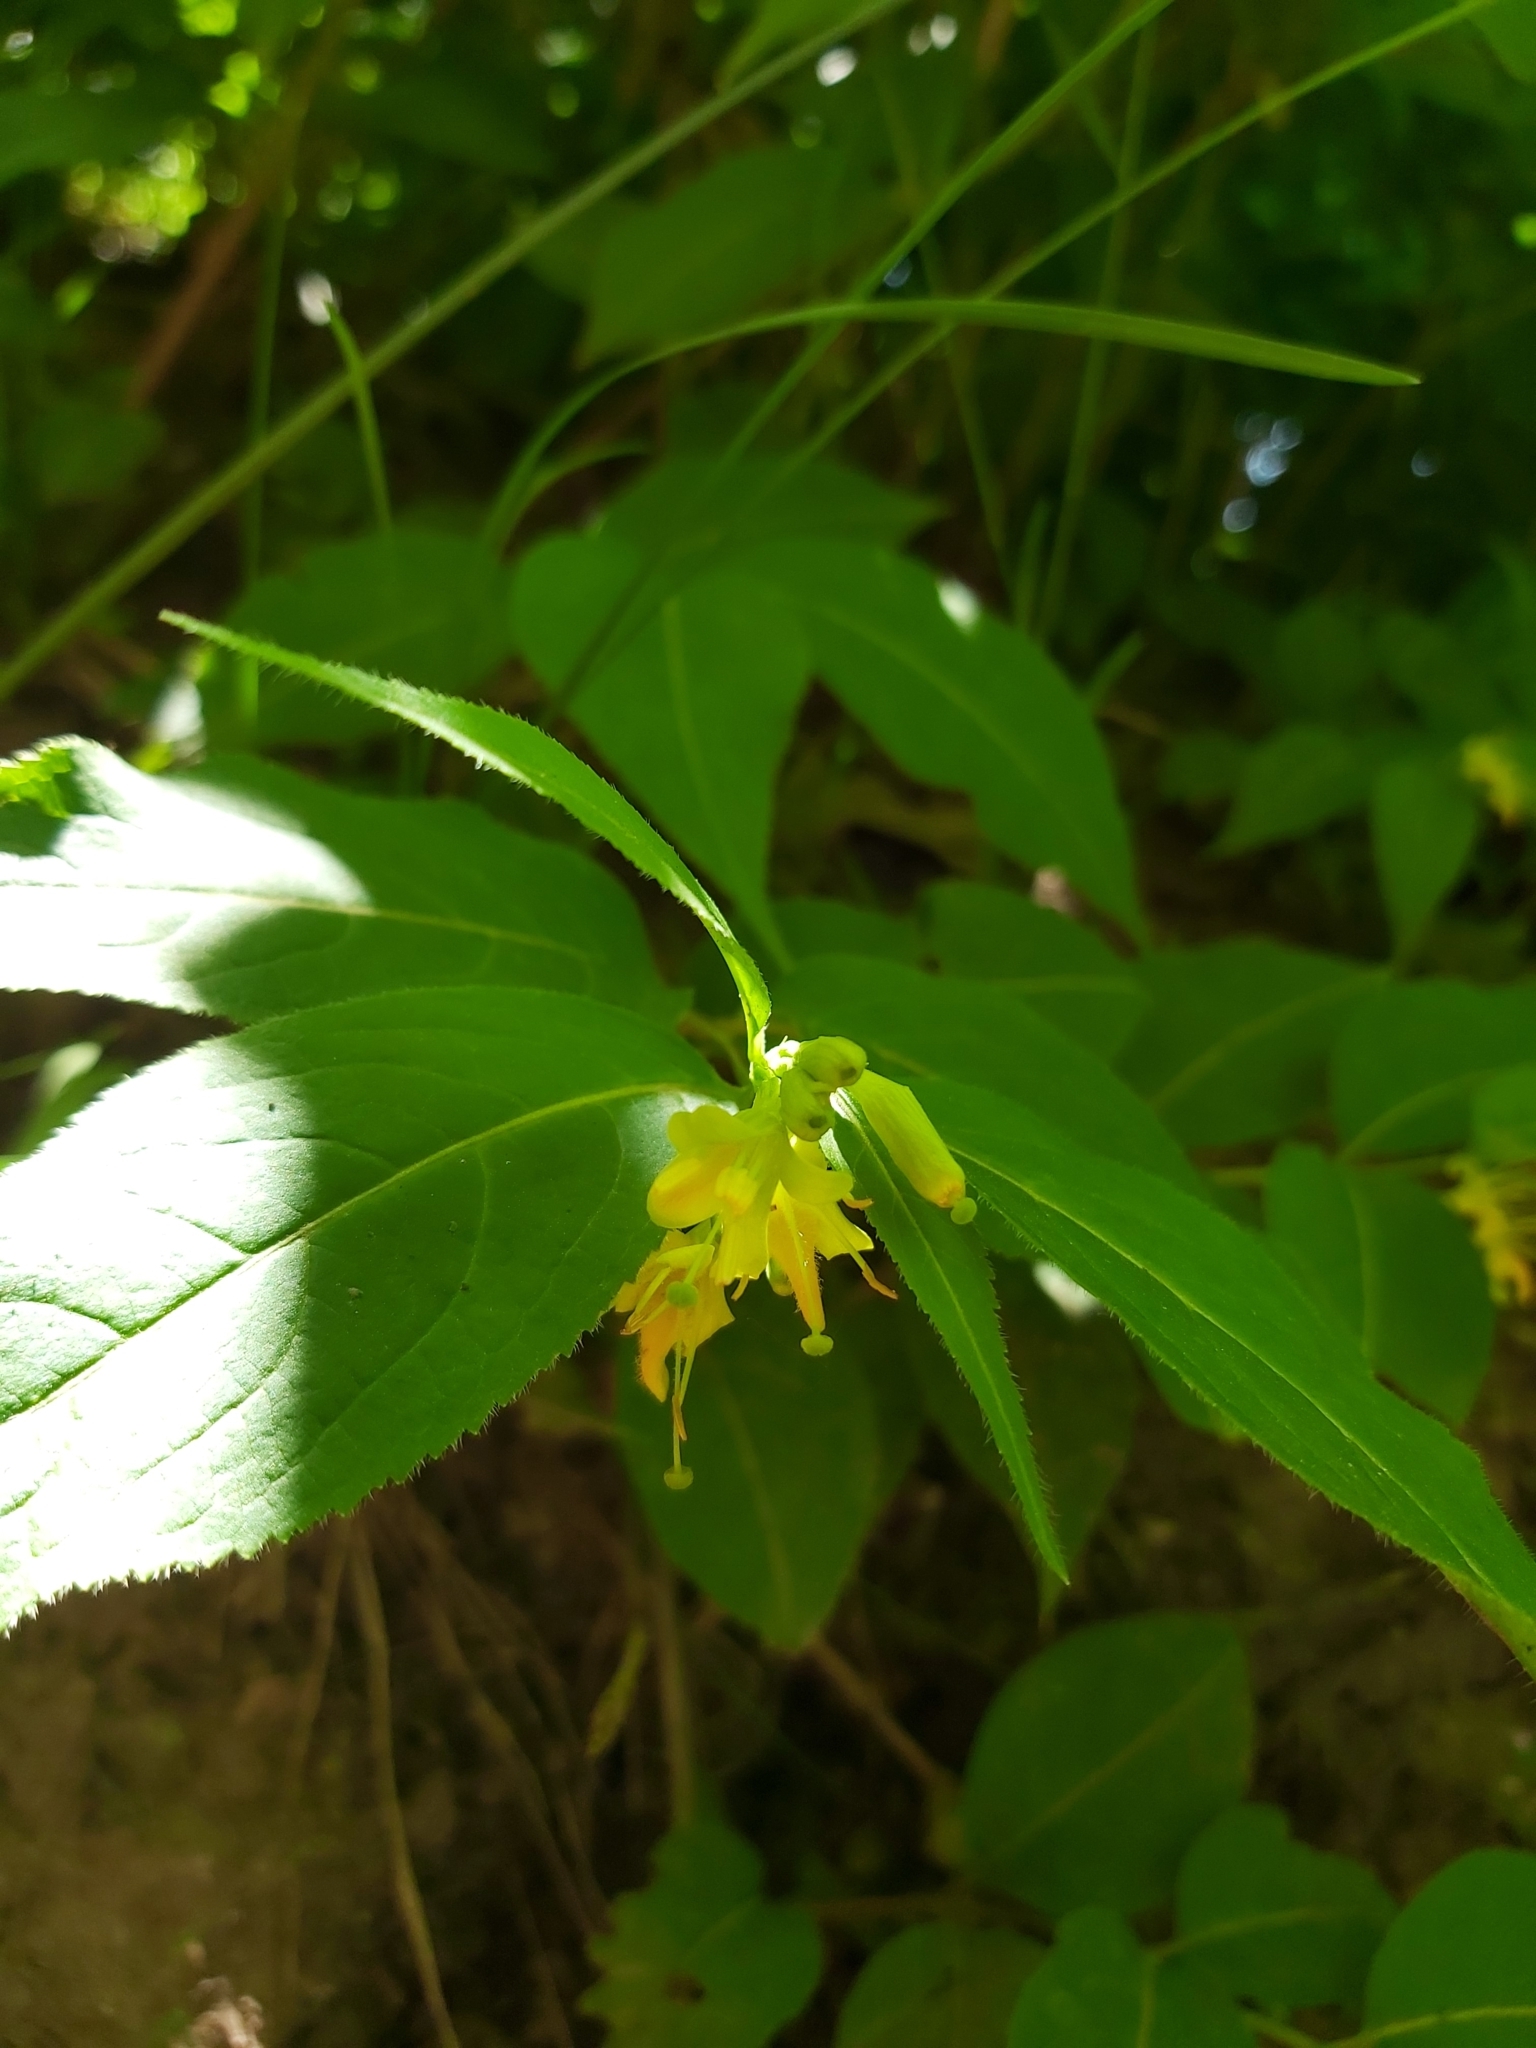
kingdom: Plantae
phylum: Tracheophyta
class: Magnoliopsida
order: Dipsacales
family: Caprifoliaceae
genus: Diervilla
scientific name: Diervilla lonicera
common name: Bush-honeysuckle
